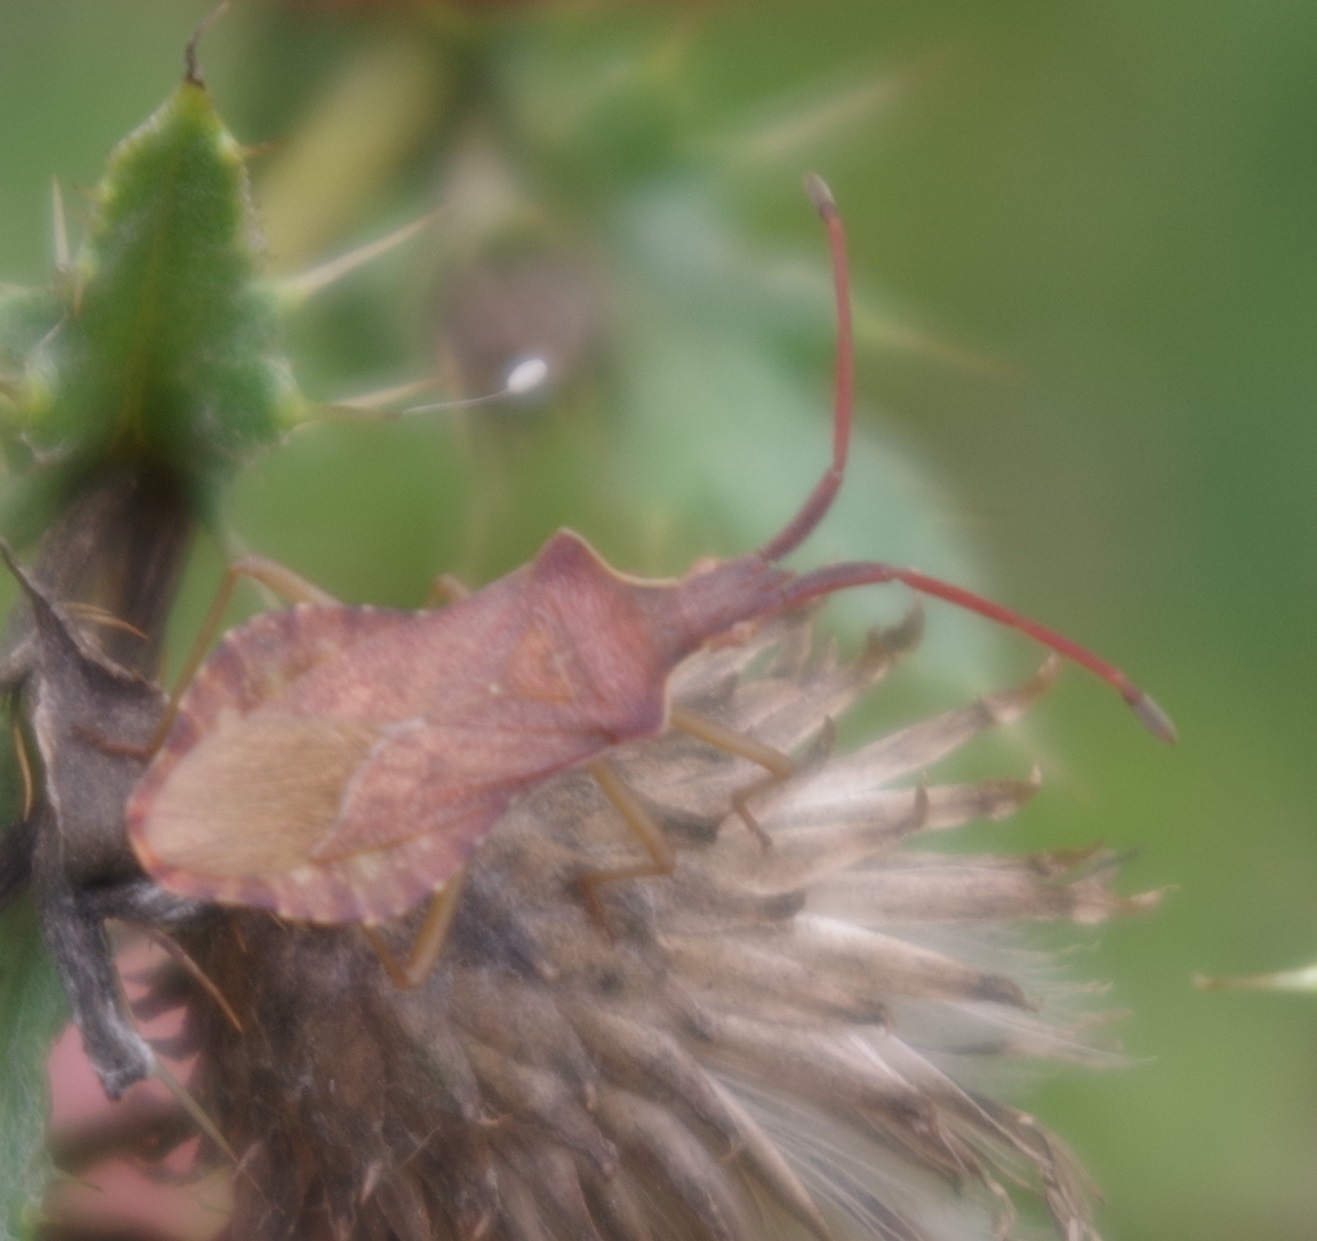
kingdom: Animalia
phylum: Arthropoda
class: Insecta
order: Hemiptera
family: Coreidae
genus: Haploprocta
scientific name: Haploprocta sulcicornis
